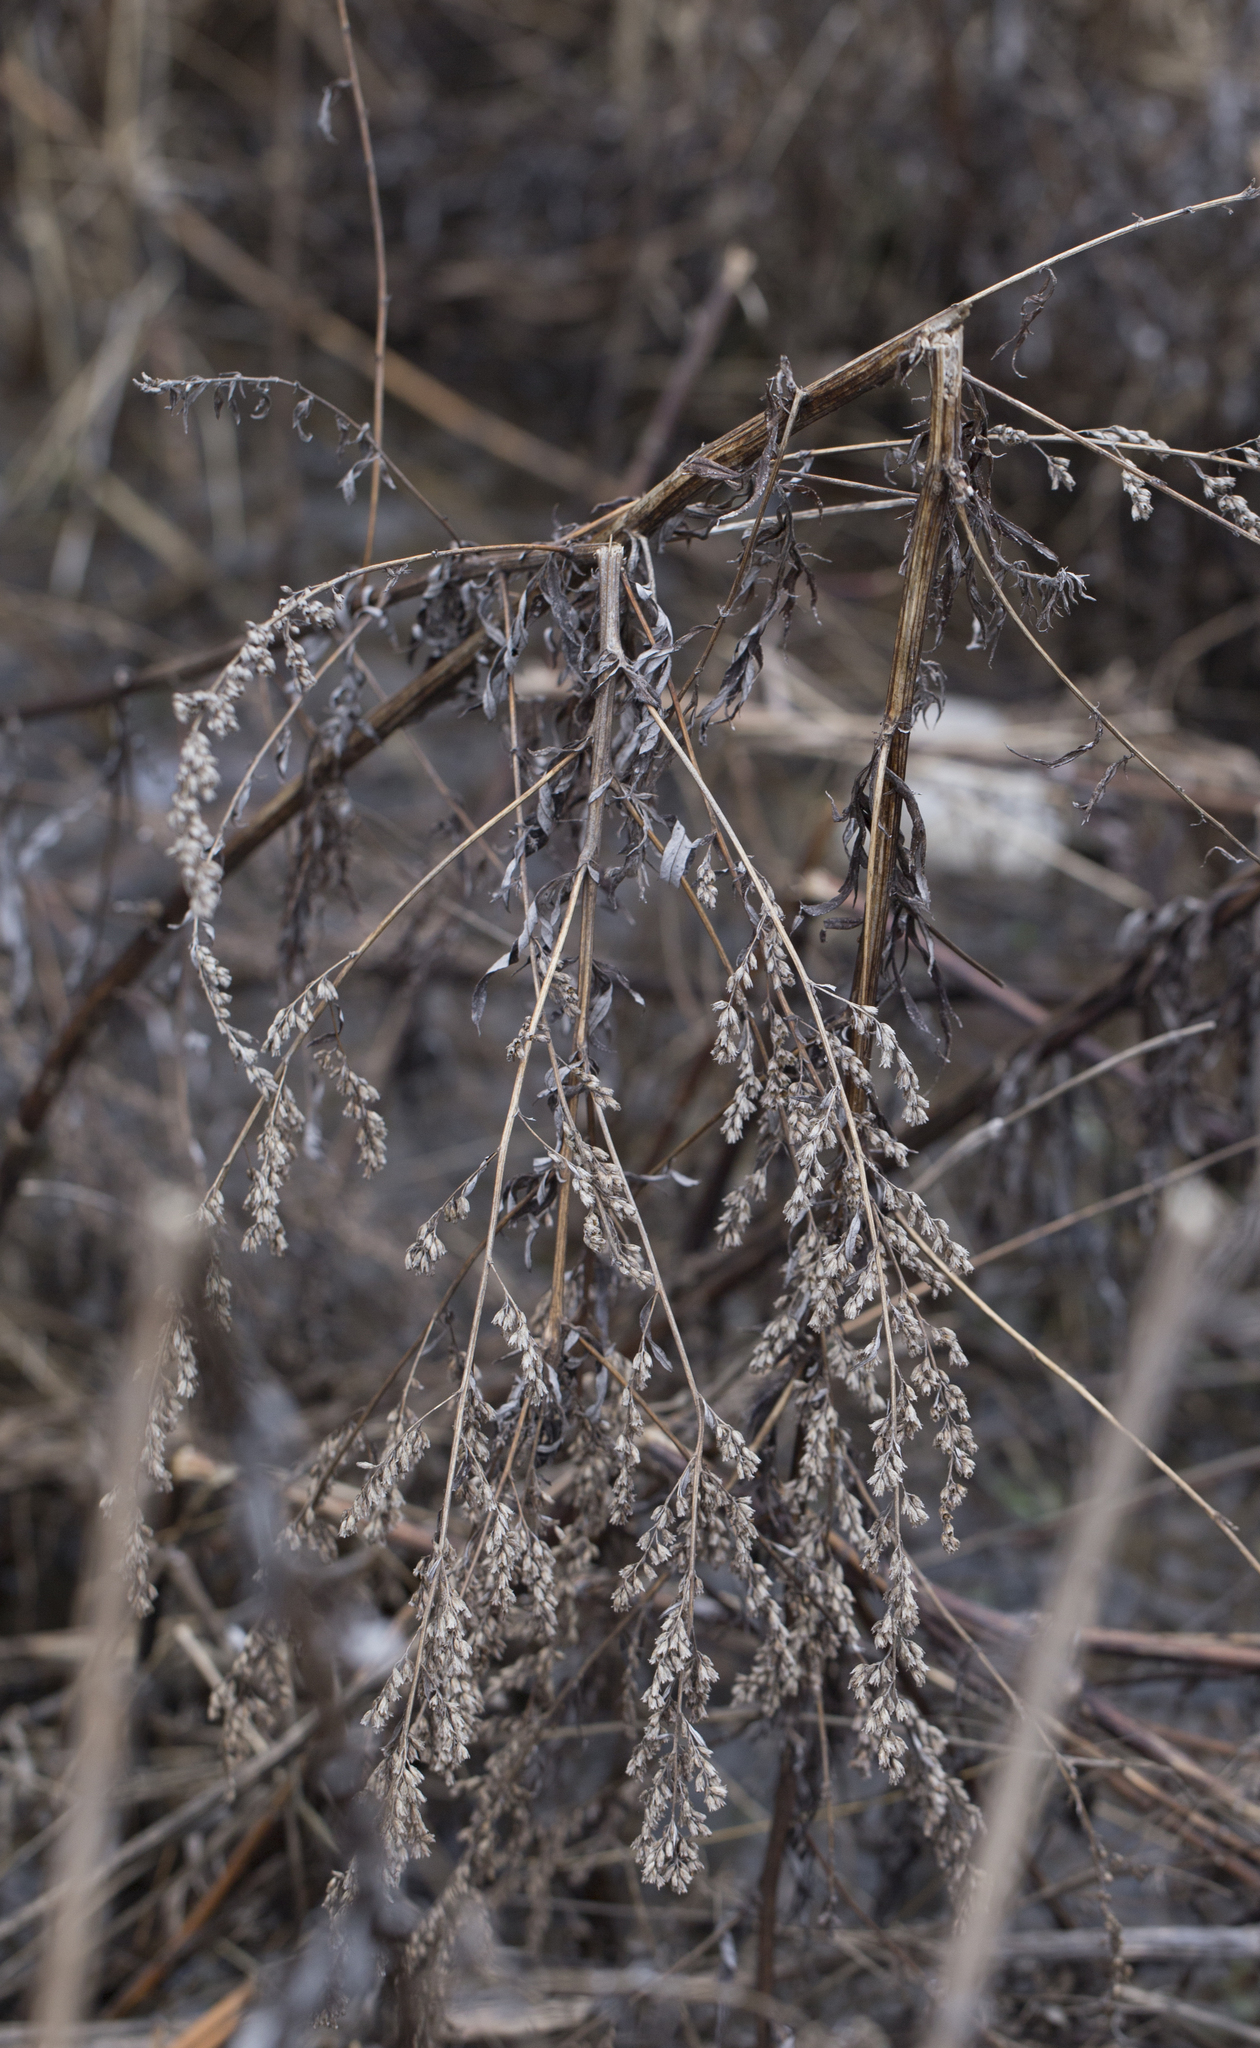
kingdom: Plantae
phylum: Tracheophyta
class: Magnoliopsida
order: Asterales
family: Asteraceae
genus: Artemisia
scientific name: Artemisia vulgaris
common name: Mugwort
